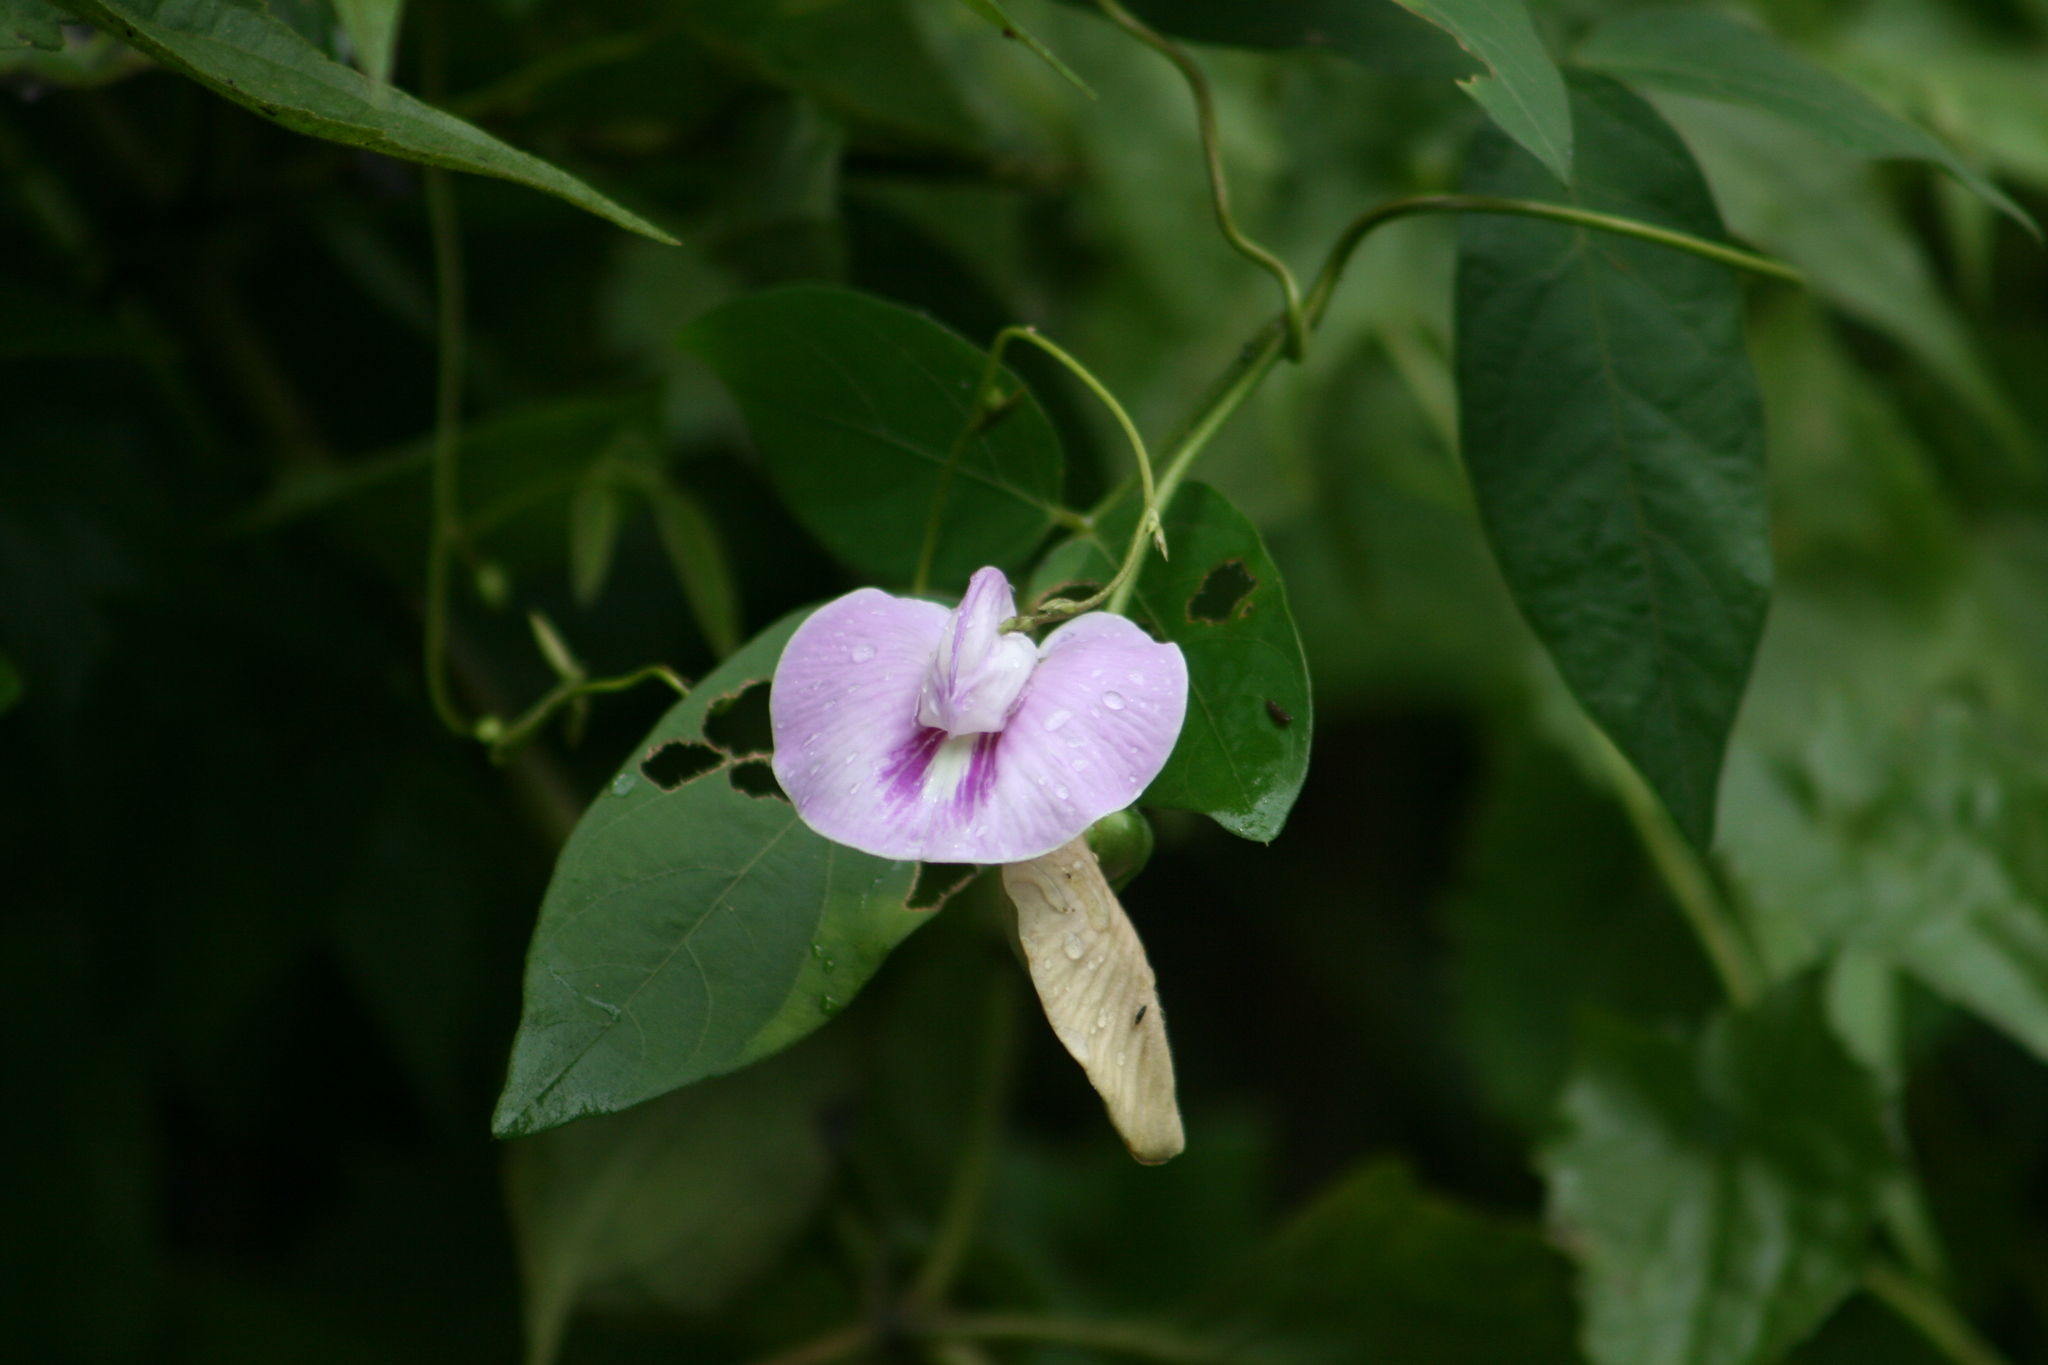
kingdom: Plantae
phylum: Tracheophyta
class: Magnoliopsida
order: Fabales
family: Fabaceae
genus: Centrosema
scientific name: Centrosema pubescens
